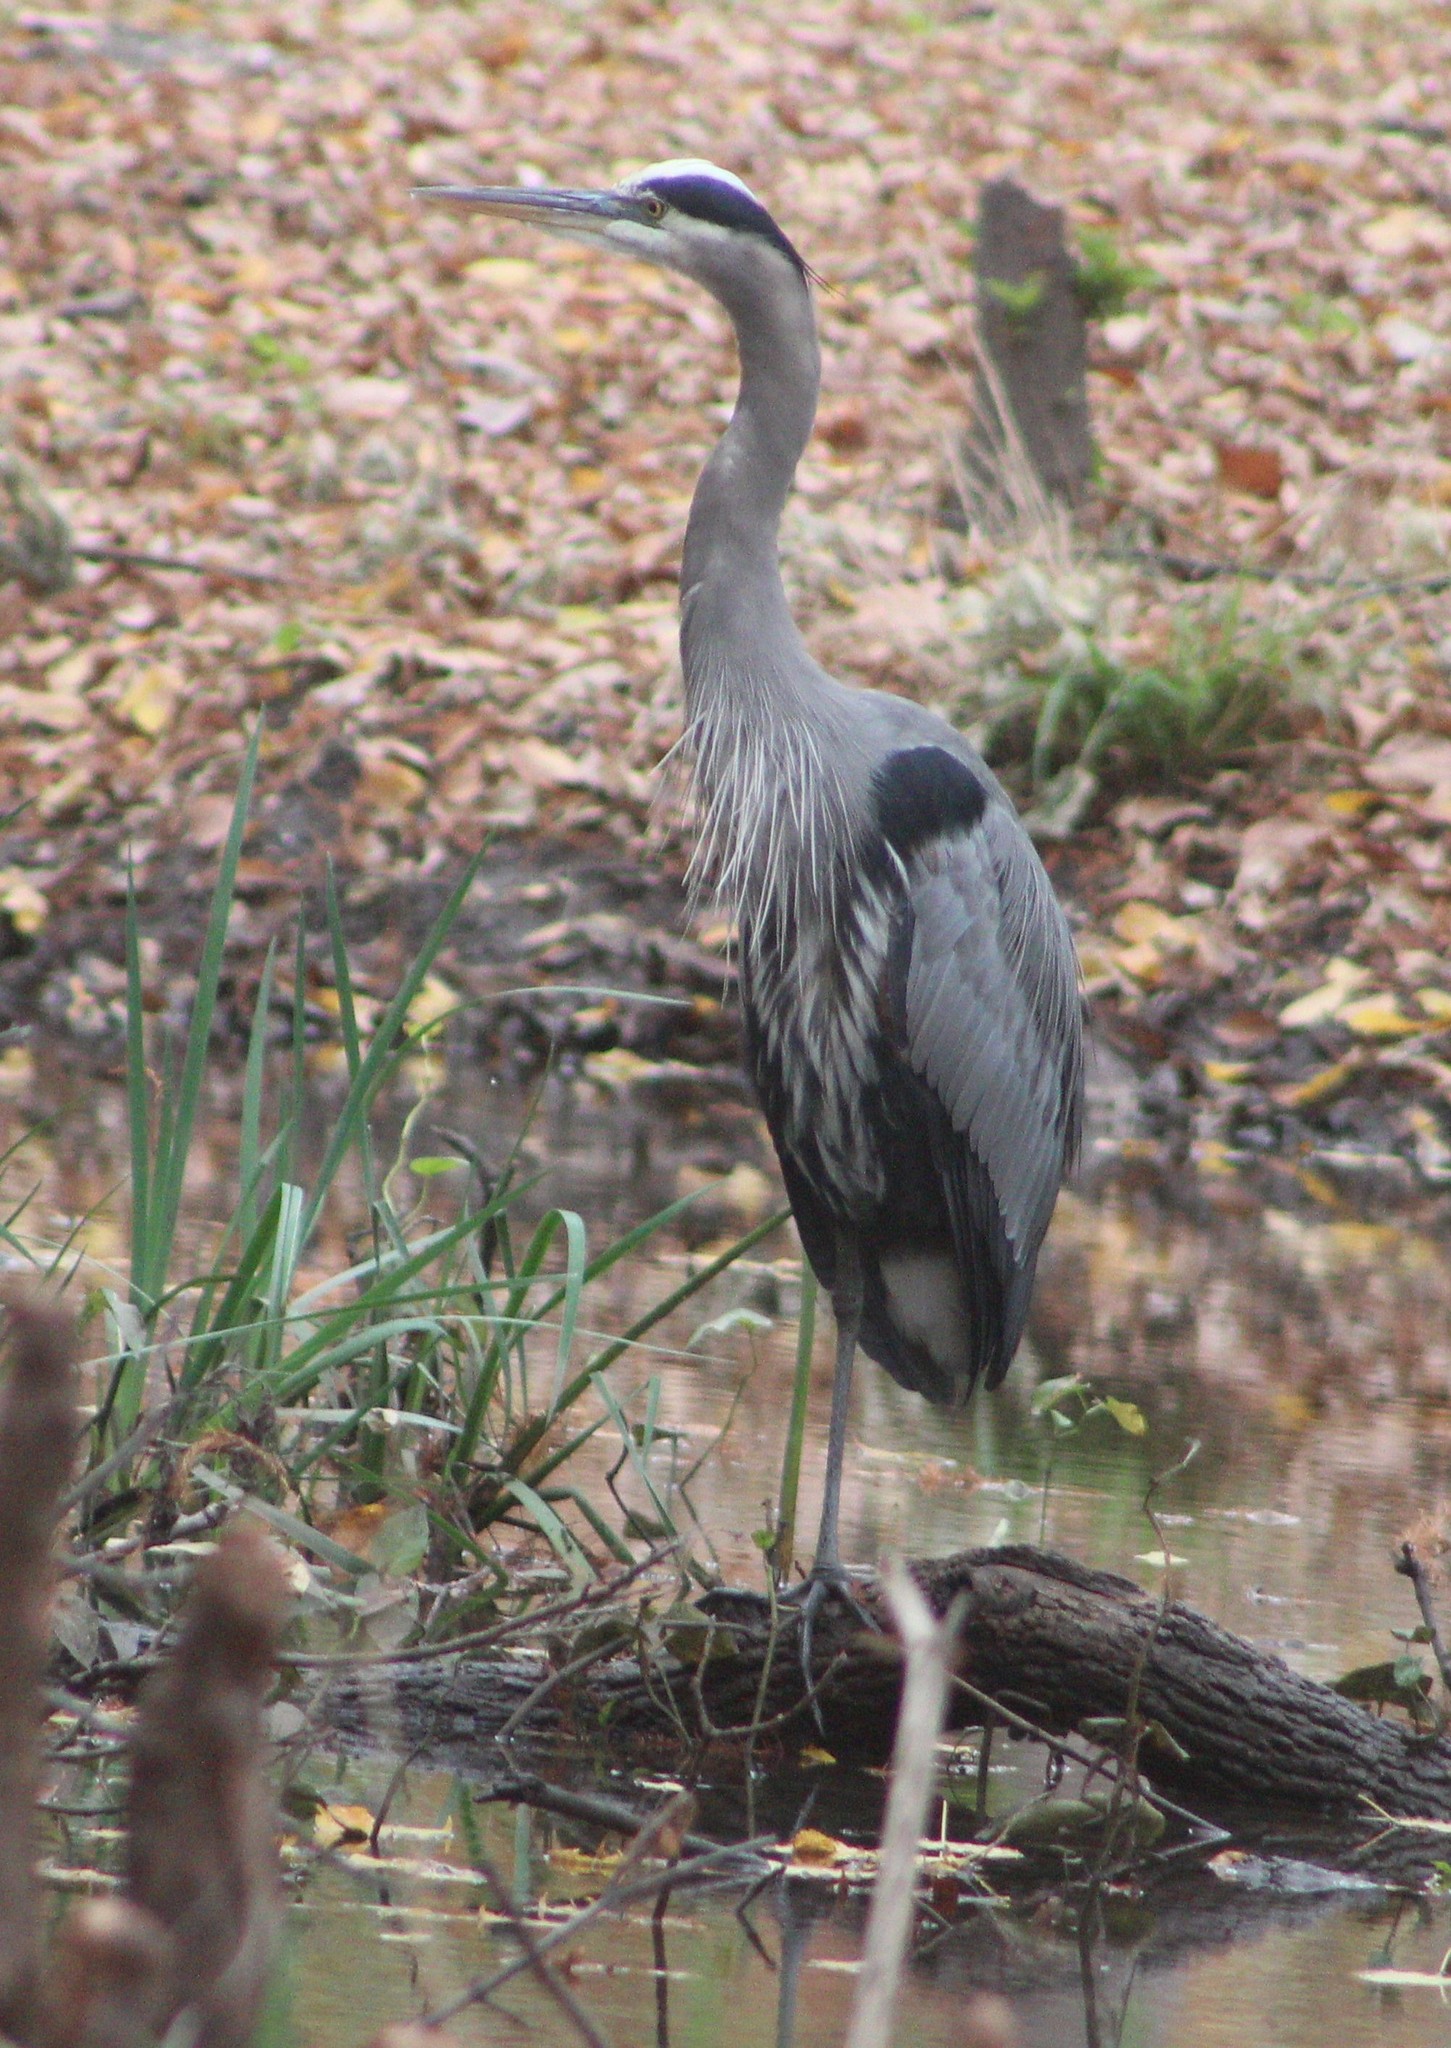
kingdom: Animalia
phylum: Chordata
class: Aves
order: Pelecaniformes
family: Ardeidae
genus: Ardea
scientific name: Ardea herodias
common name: Great blue heron
